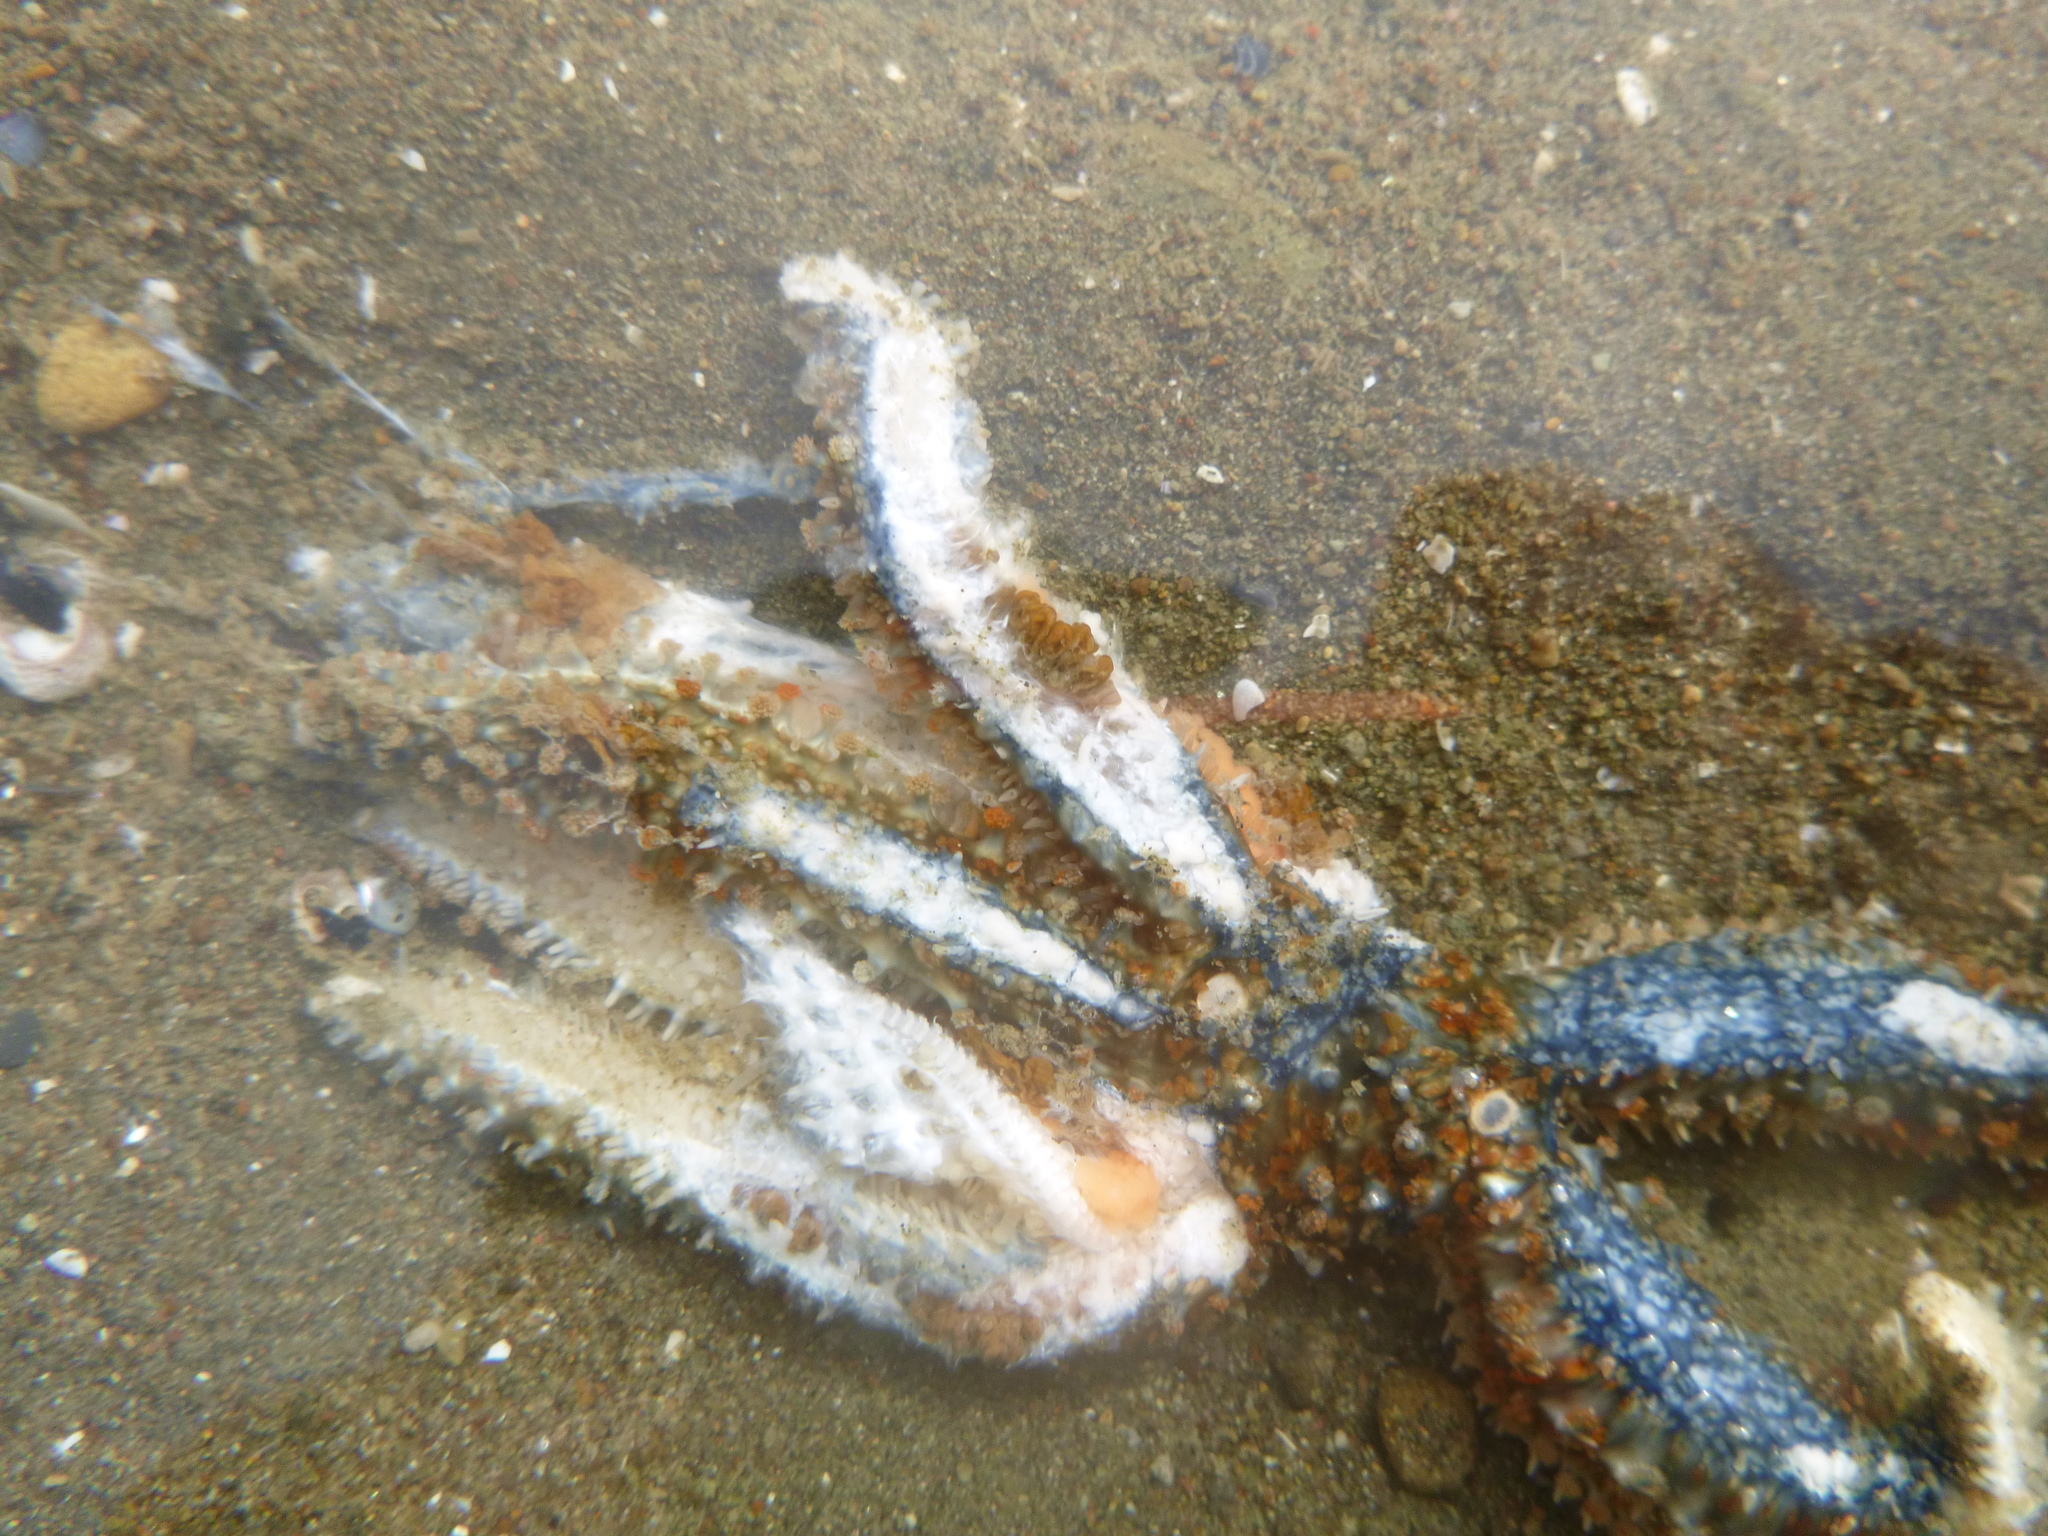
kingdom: Animalia
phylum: Echinodermata
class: Asteroidea
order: Forcipulatida
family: Asteriidae
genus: Coscinasterias
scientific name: Coscinasterias muricata
